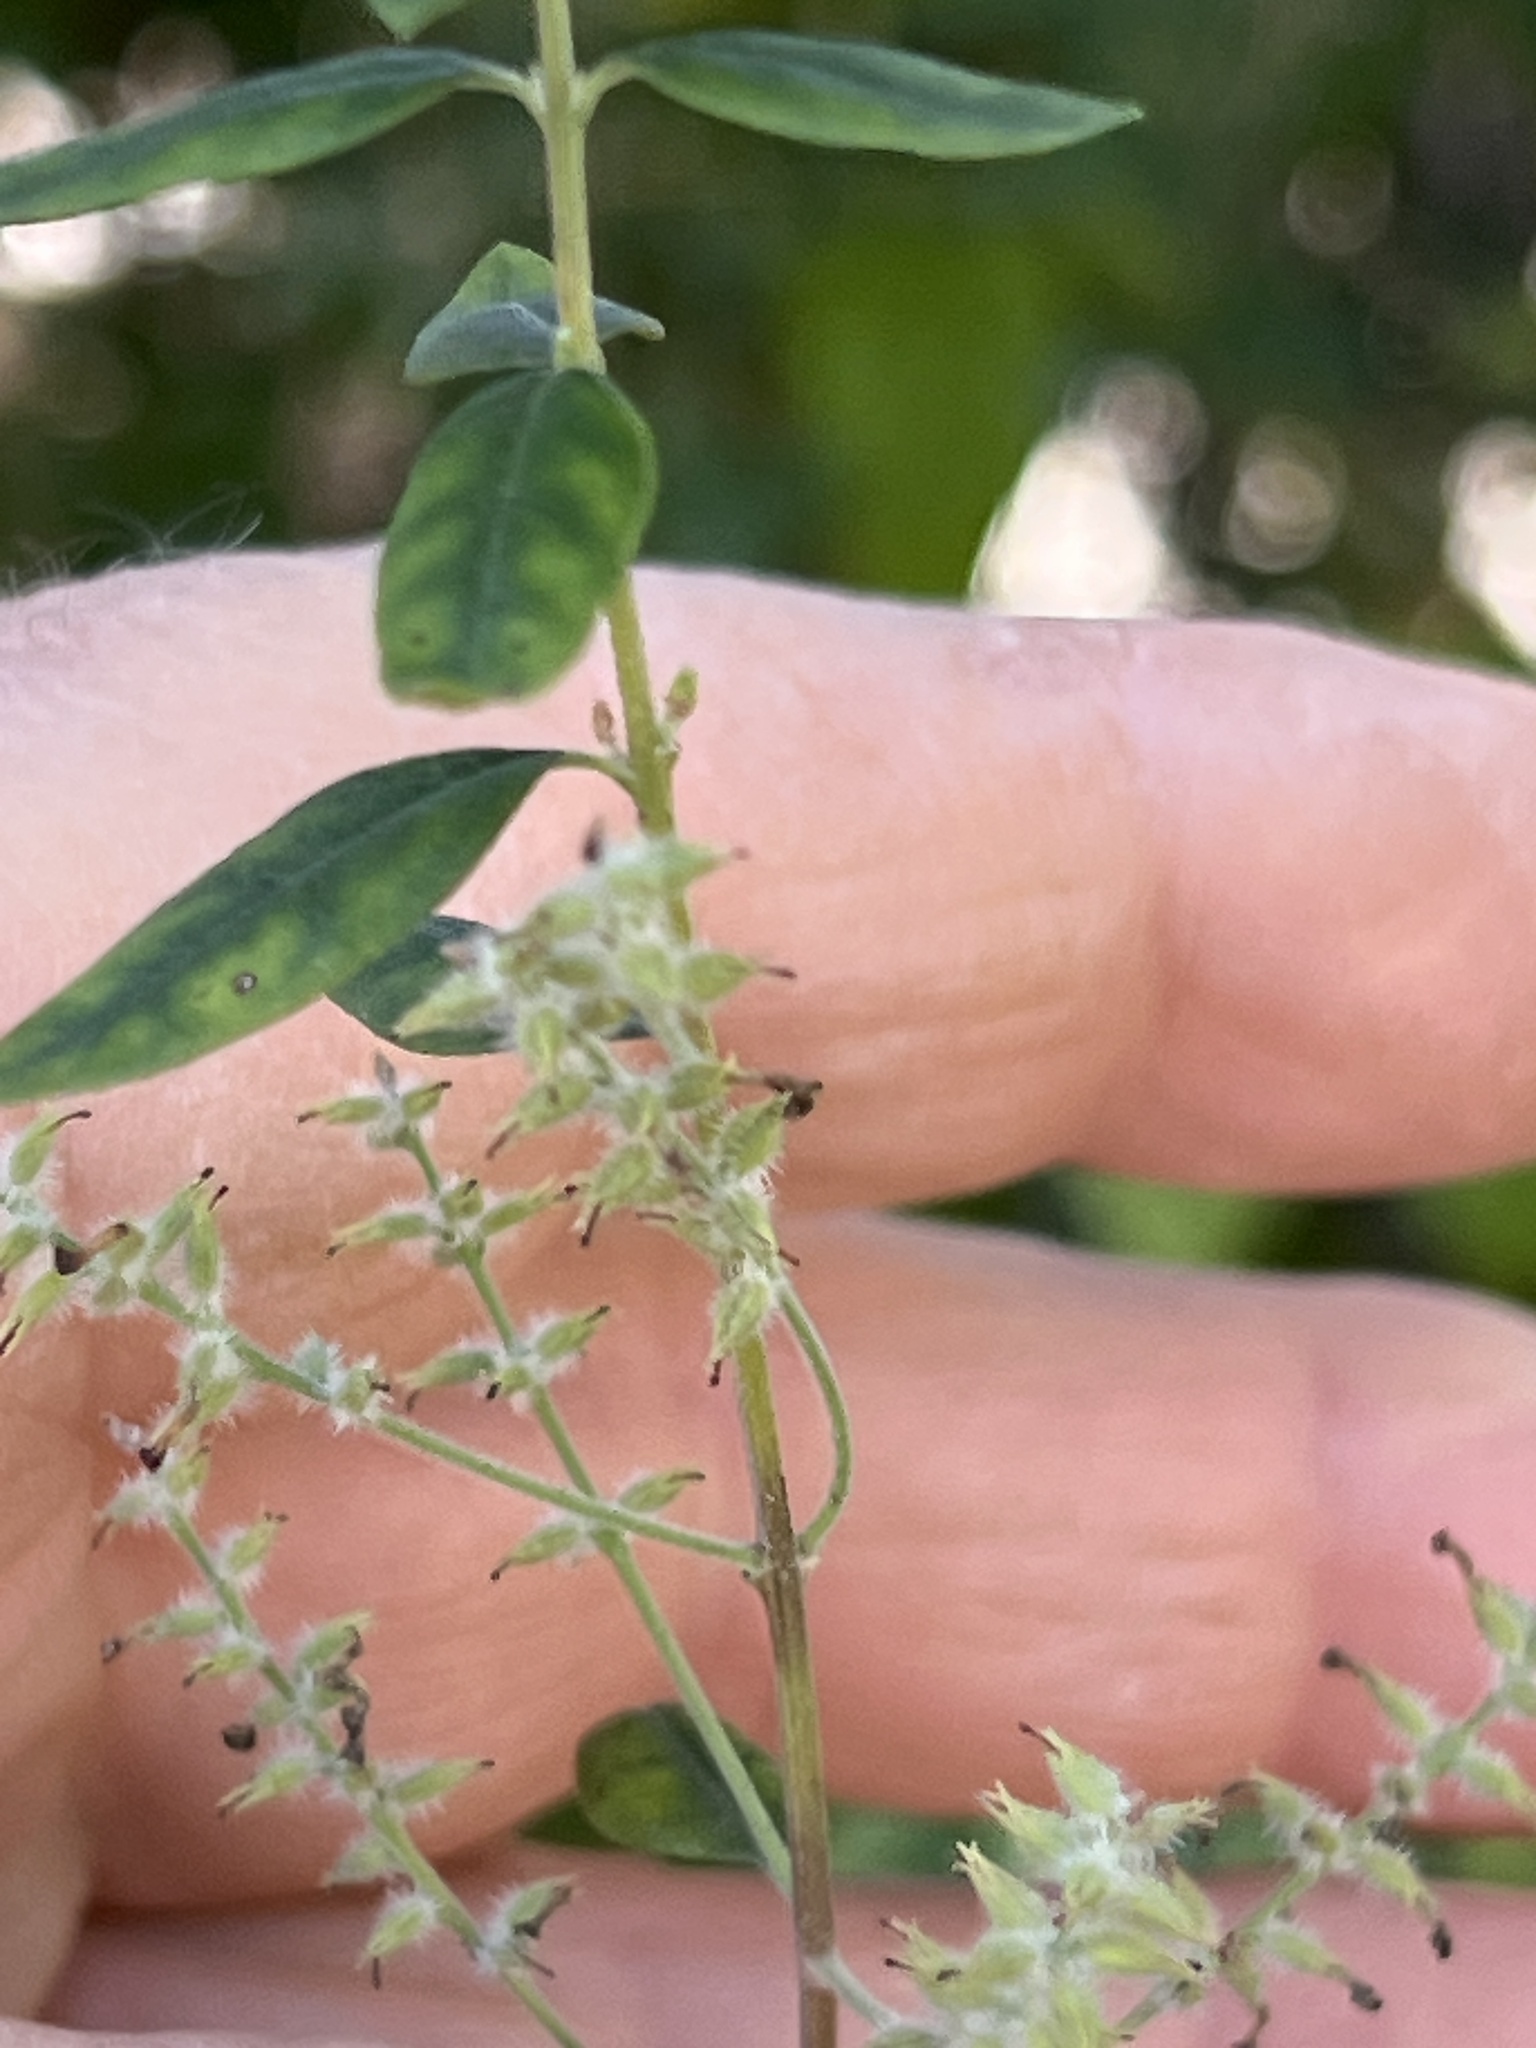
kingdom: Plantae
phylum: Tracheophyta
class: Magnoliopsida
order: Lamiales
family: Verbenaceae
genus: Aloysia
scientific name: Aloysia gratissima
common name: Common bee-brush
